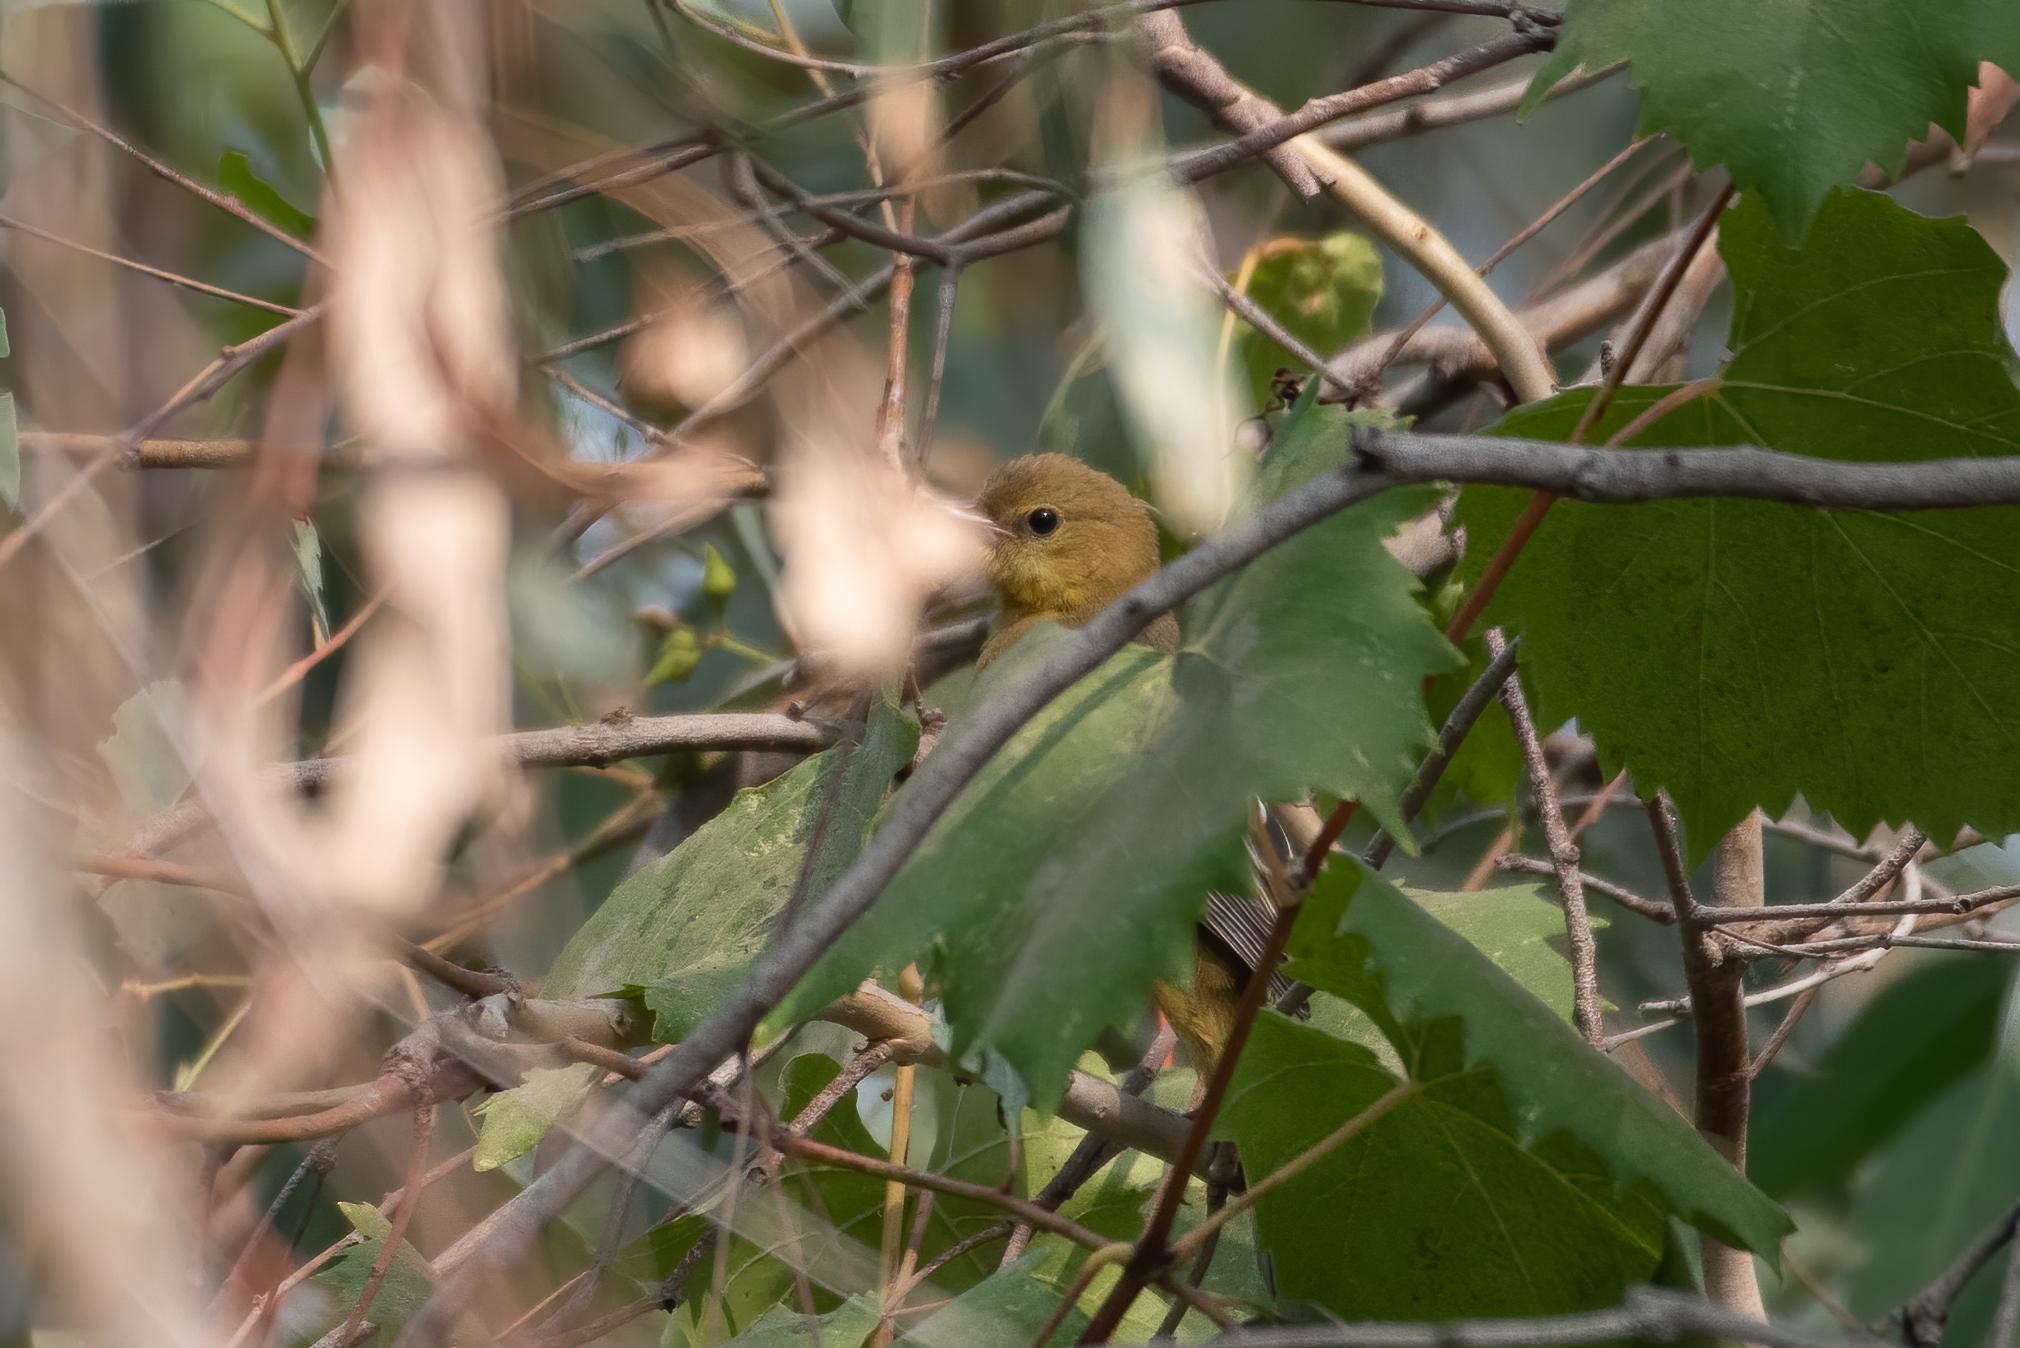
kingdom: Animalia
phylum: Chordata
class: Aves
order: Passeriformes
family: Icteridae
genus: Icterus
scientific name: Icterus
